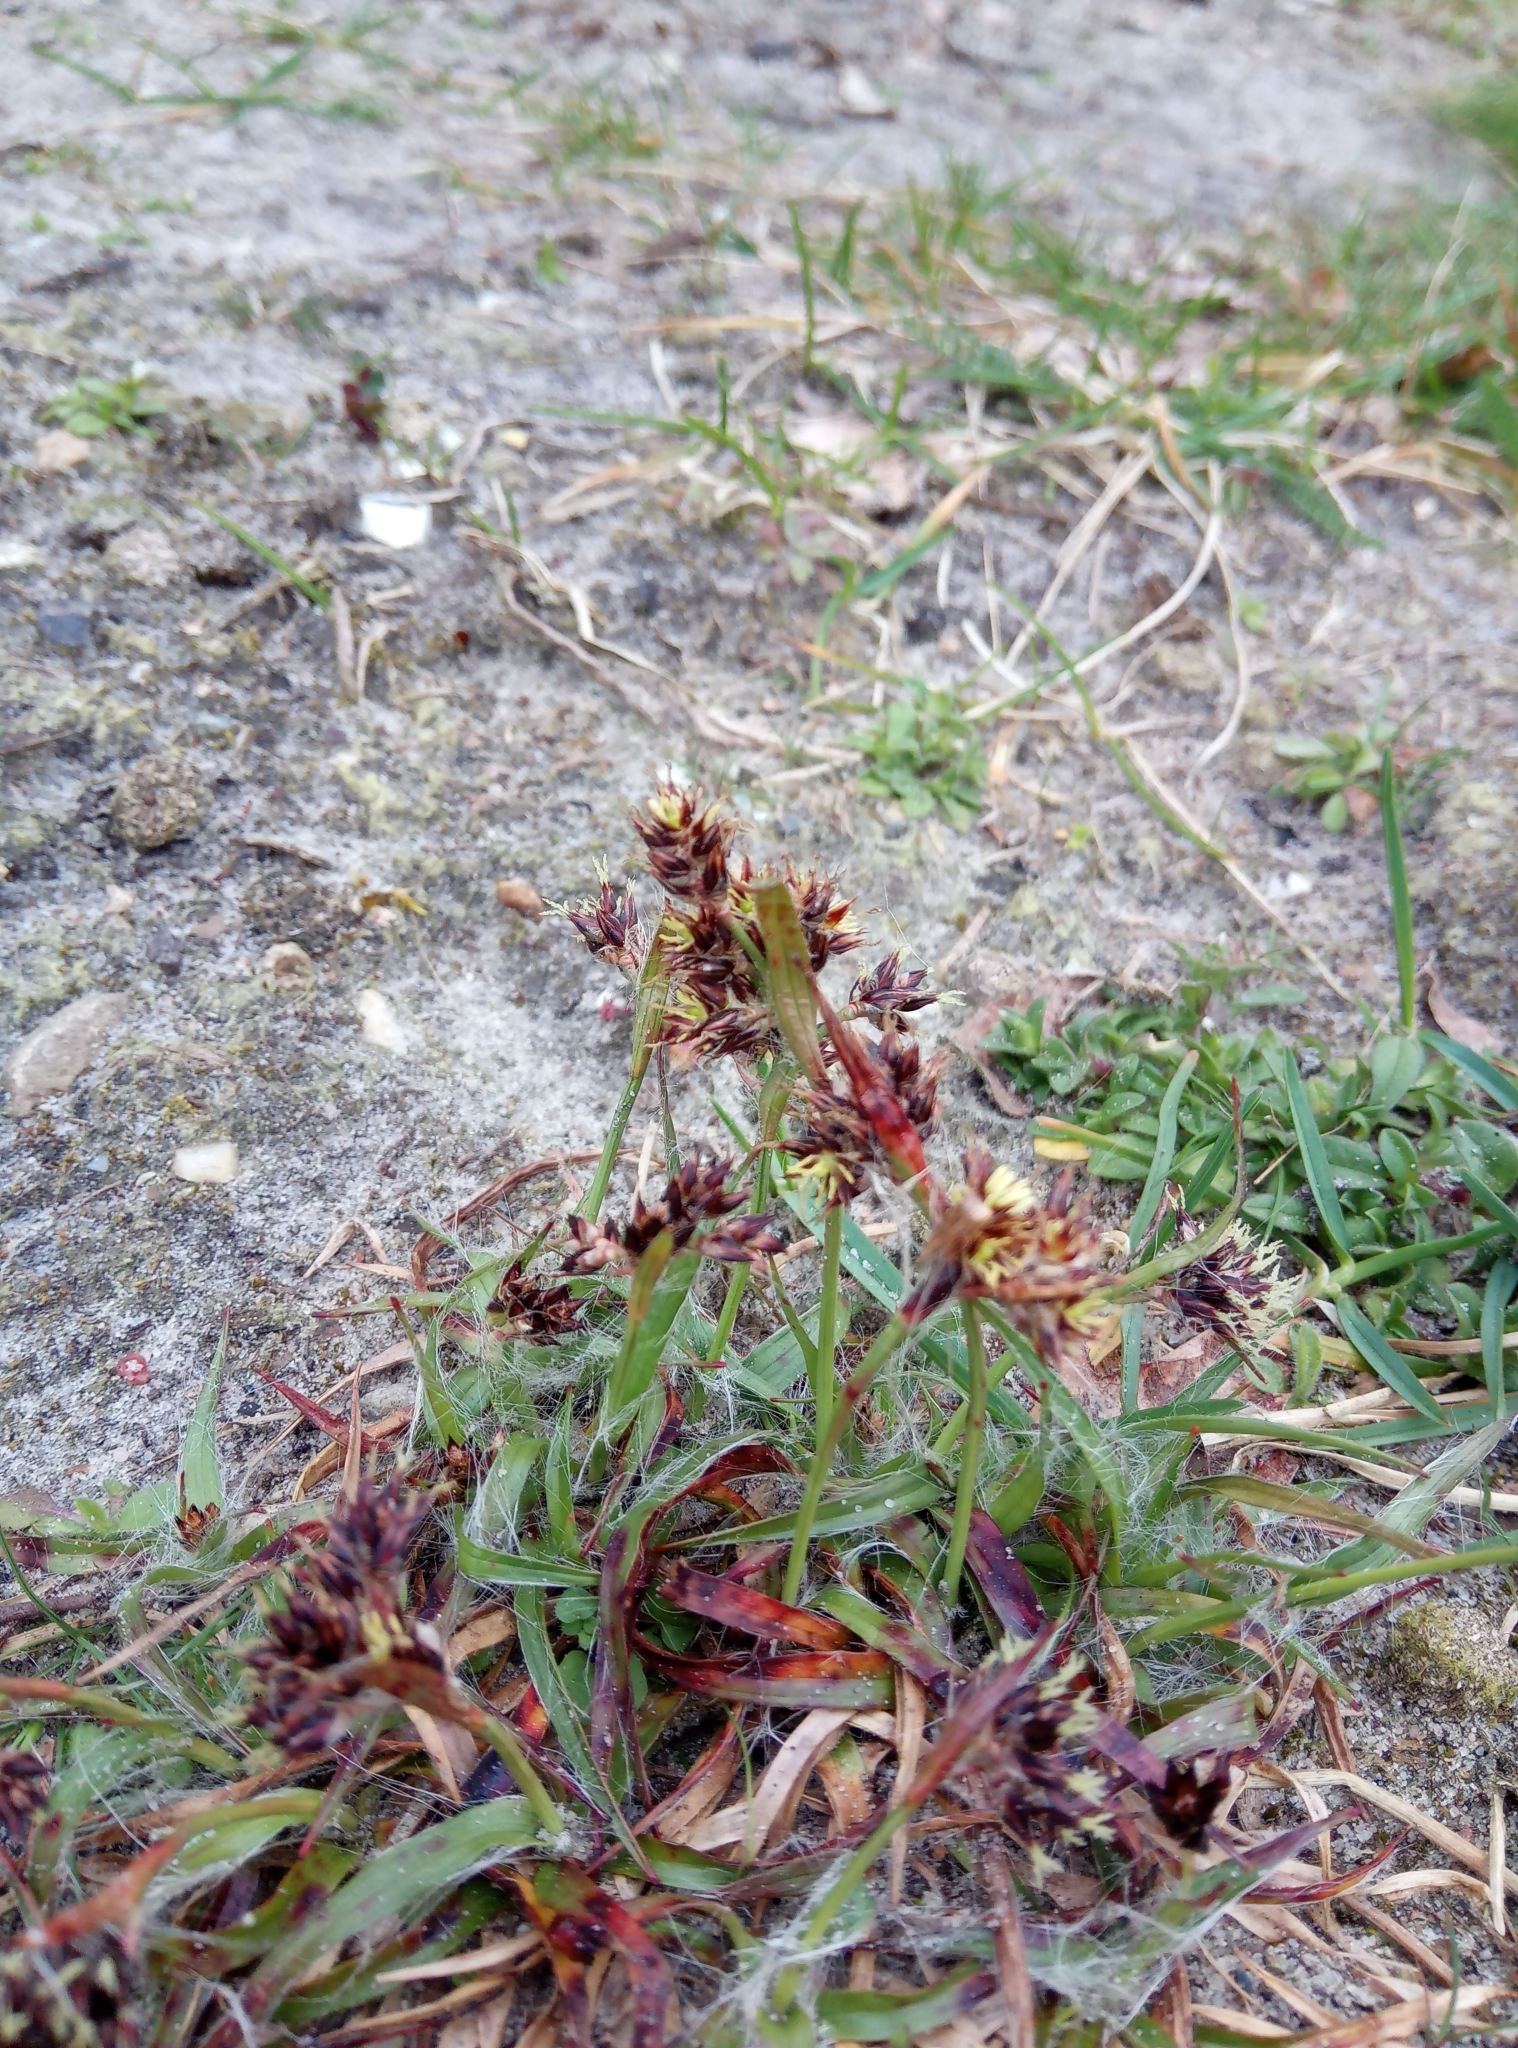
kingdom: Plantae
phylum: Tracheophyta
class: Liliopsida
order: Poales
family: Juncaceae
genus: Luzula
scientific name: Luzula campestris
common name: Field wood-rush
